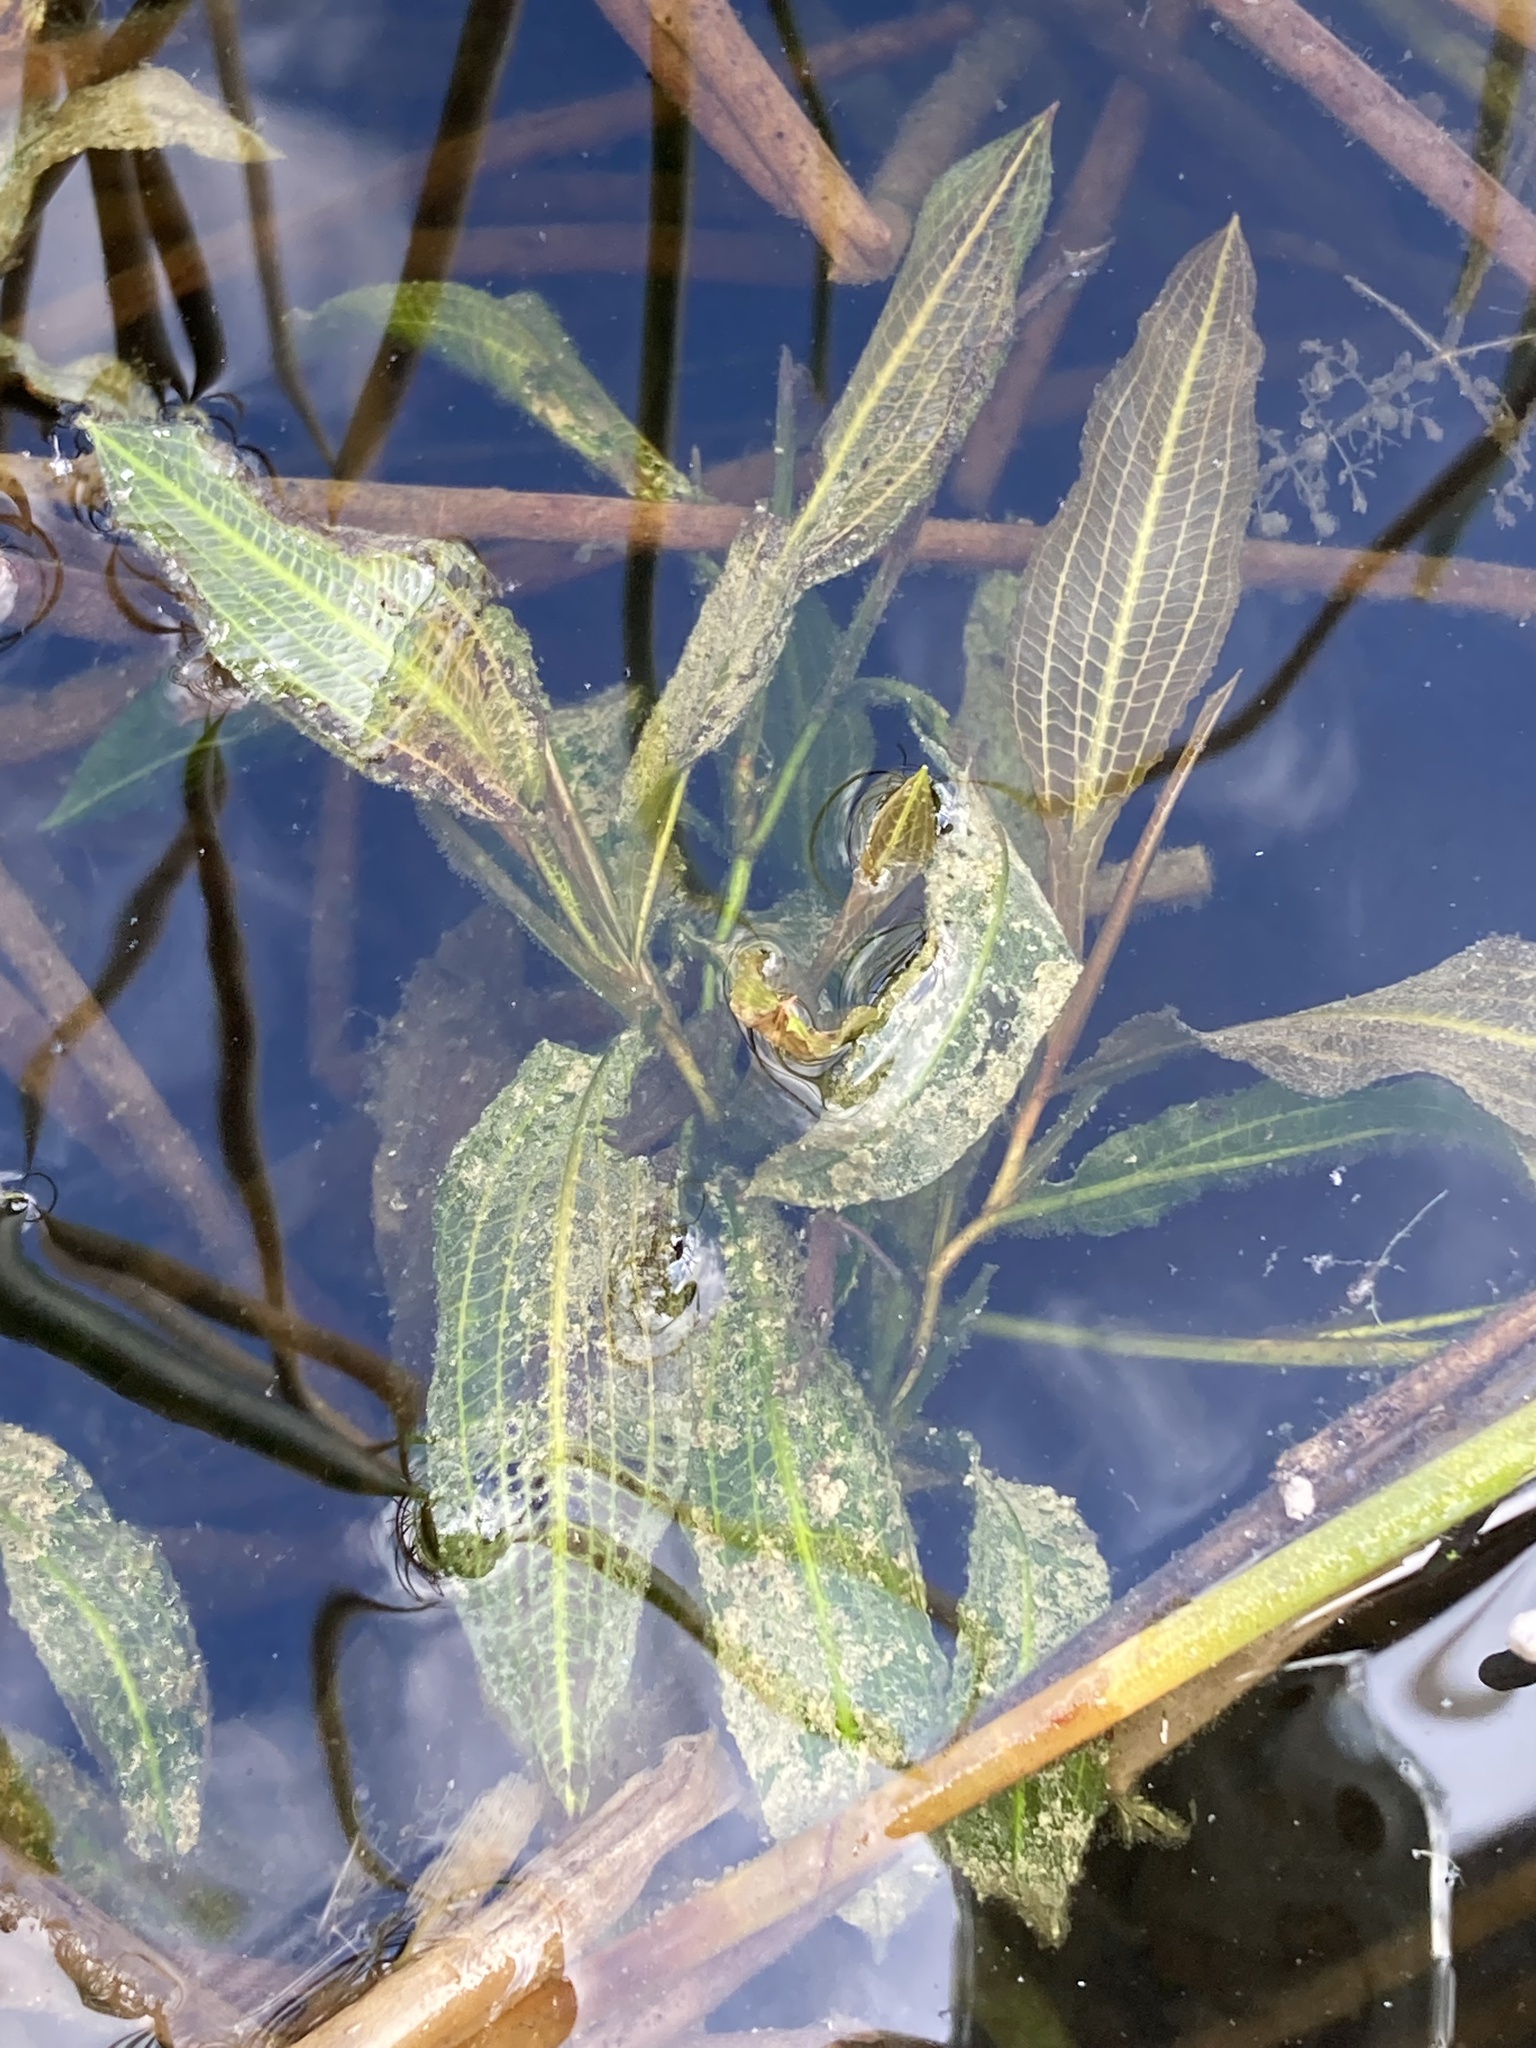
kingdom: Plantae
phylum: Tracheophyta
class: Liliopsida
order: Alismatales
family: Potamogetonaceae
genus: Potamogeton
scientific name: Potamogeton illinoensis
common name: Illinois pondweed
